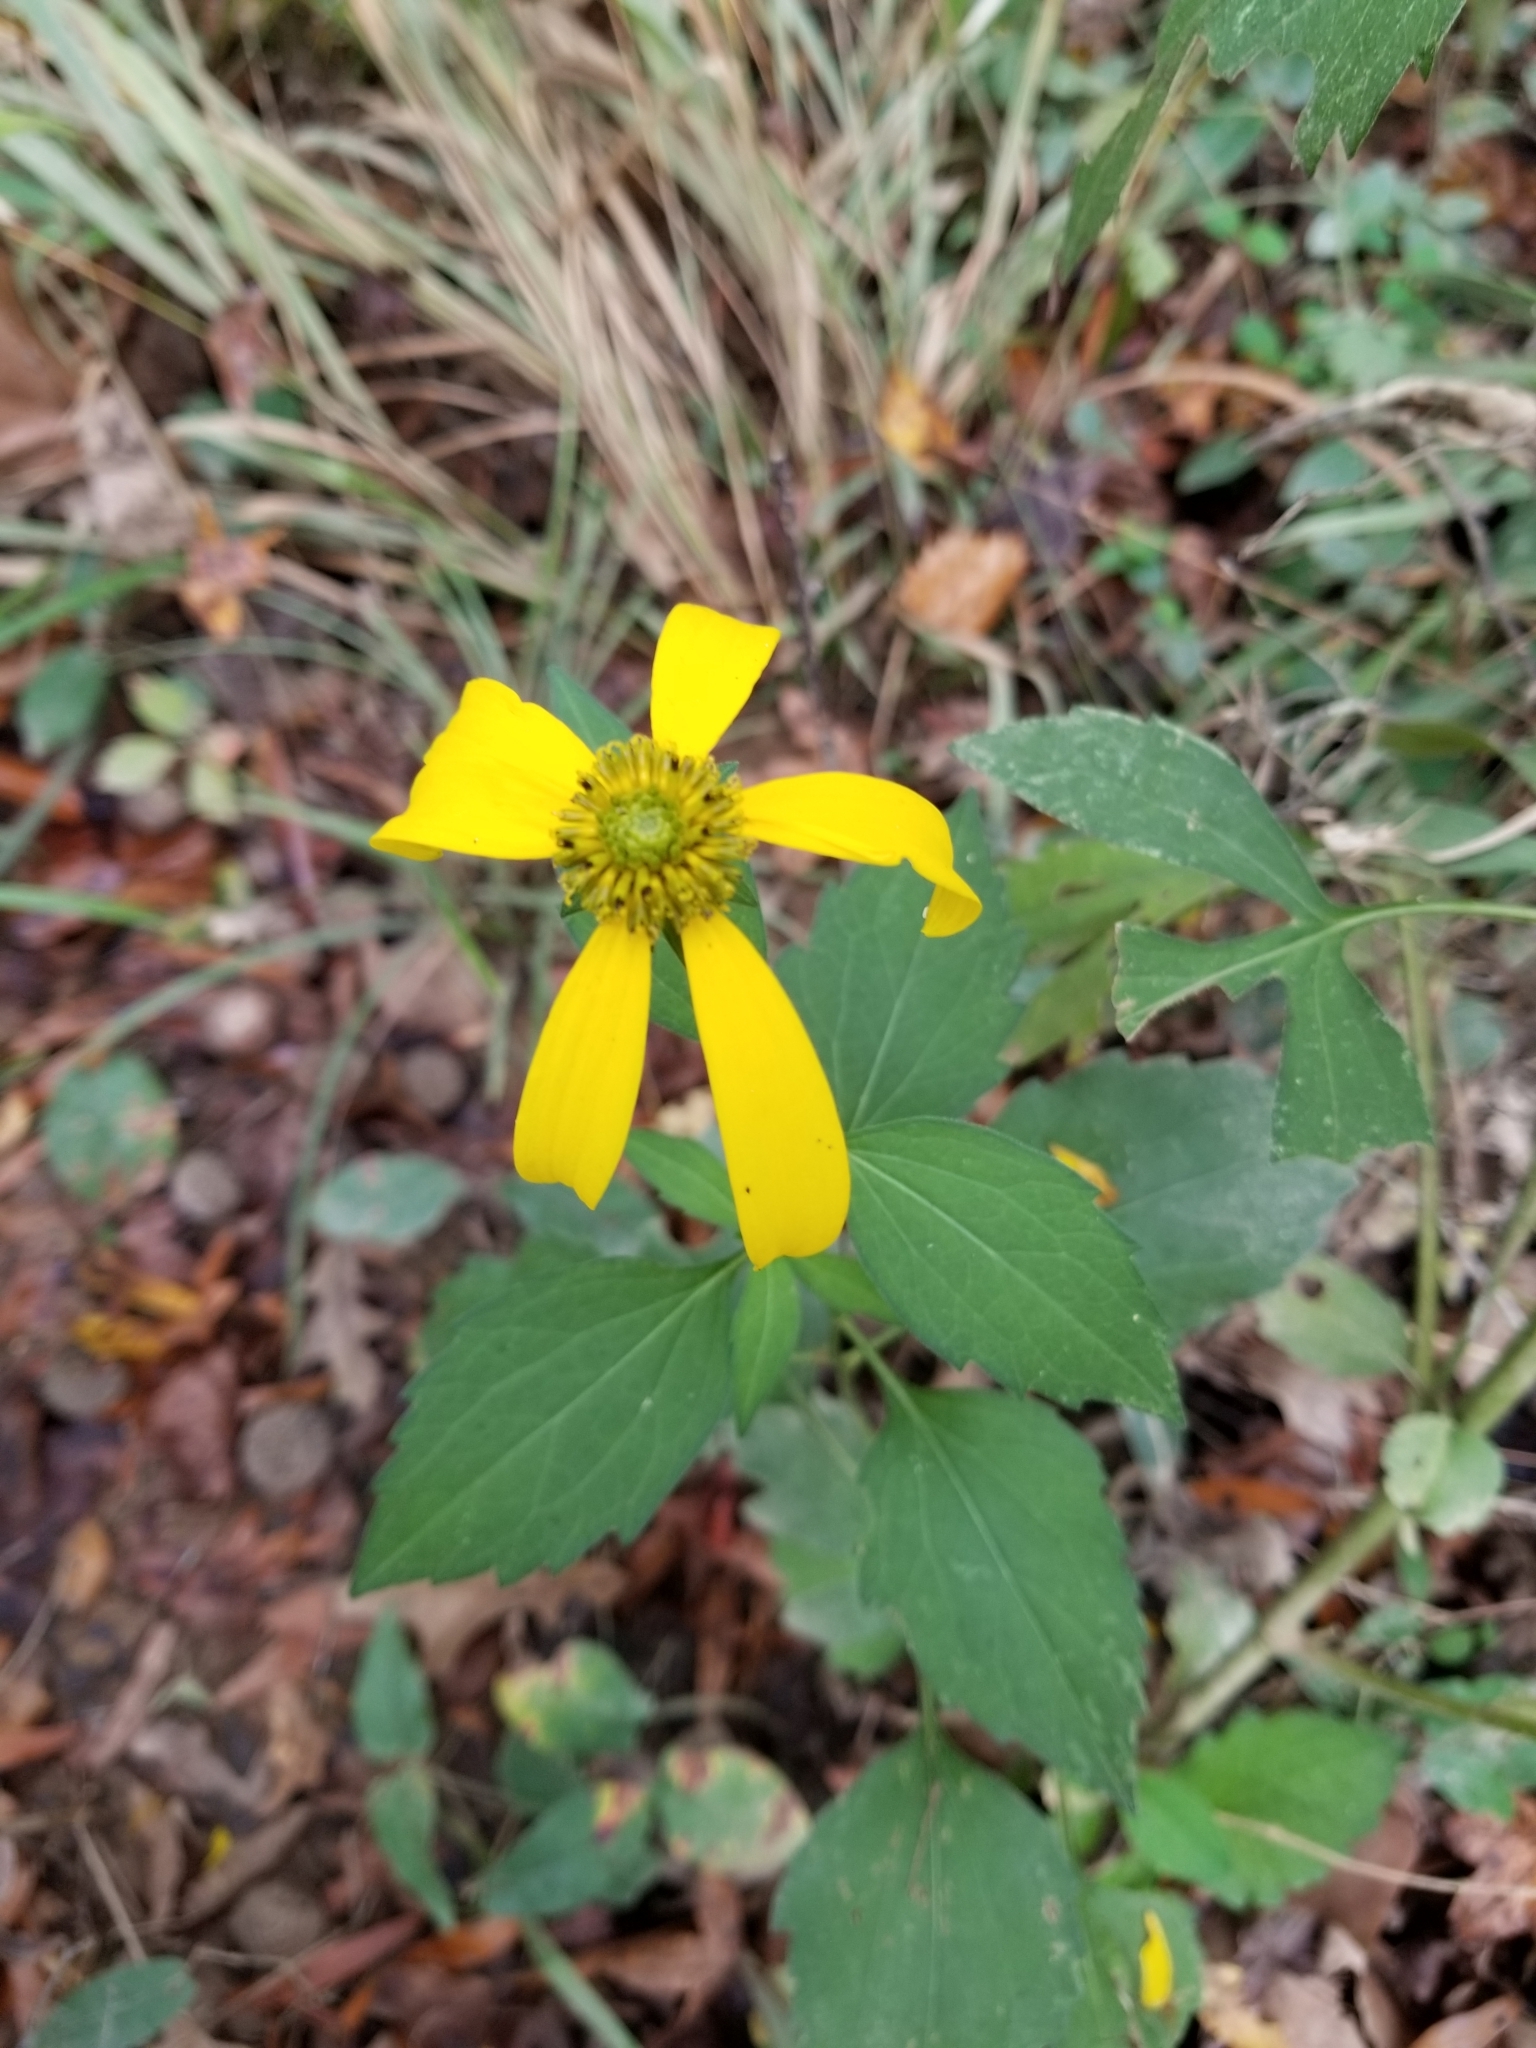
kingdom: Plantae
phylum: Tracheophyta
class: Magnoliopsida
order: Asterales
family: Asteraceae
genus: Rudbeckia
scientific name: Rudbeckia laciniata
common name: Coneflower
